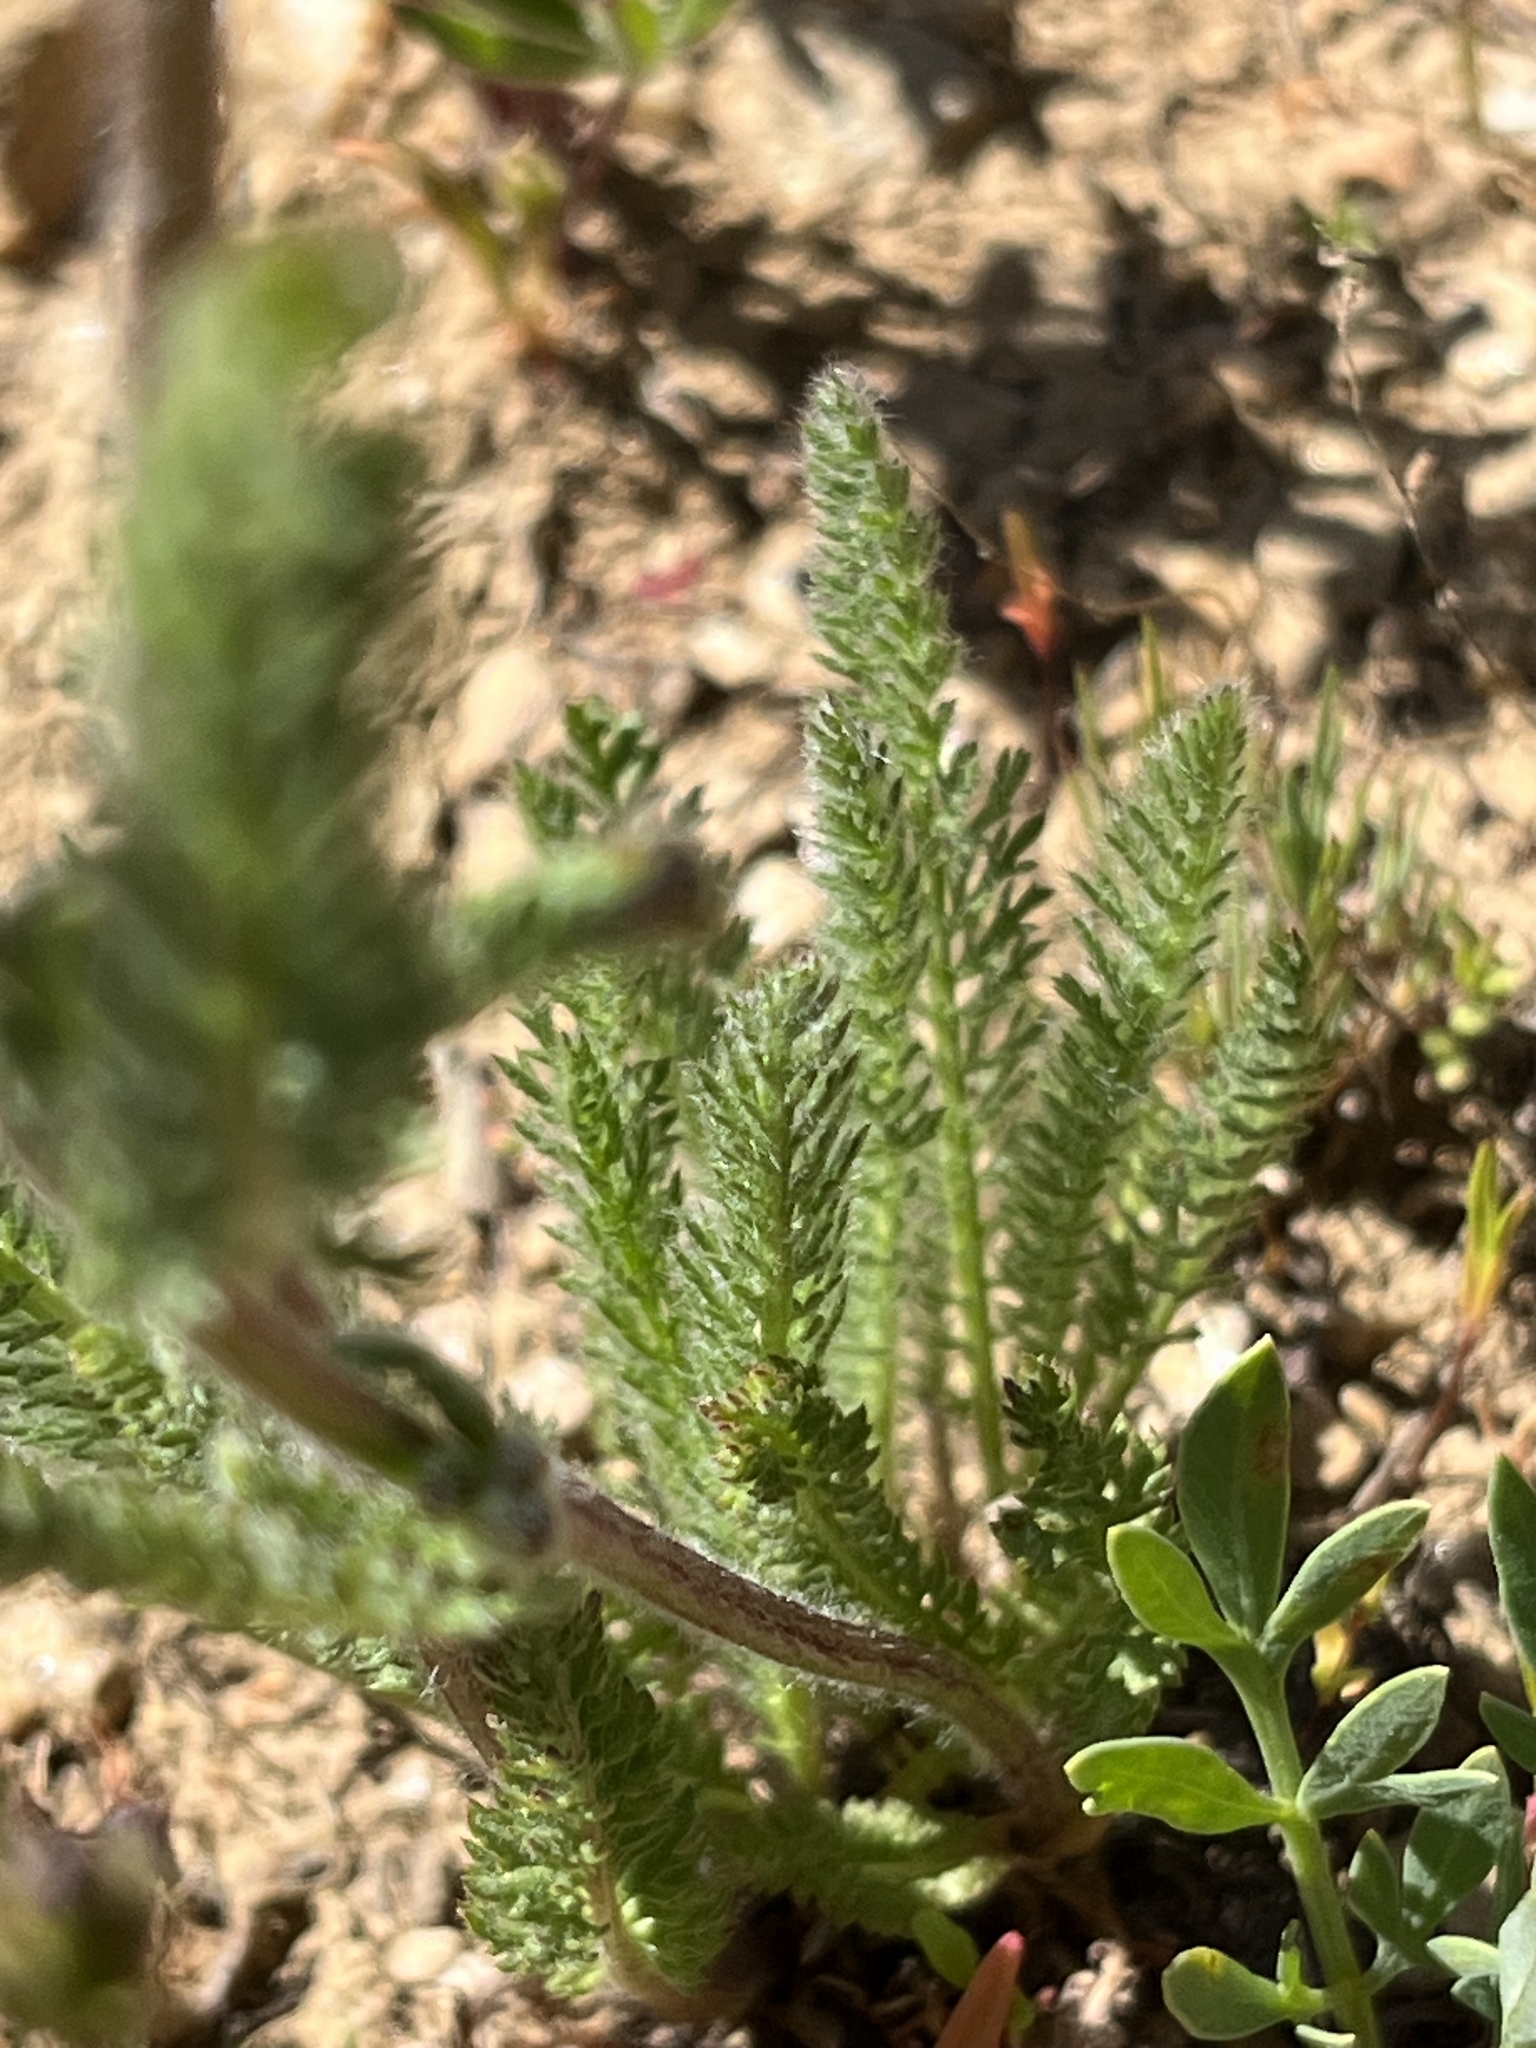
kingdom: Plantae
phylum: Tracheophyta
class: Magnoliopsida
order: Asterales
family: Asteraceae
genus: Achillea
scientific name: Achillea millefolium
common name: Yarrow
